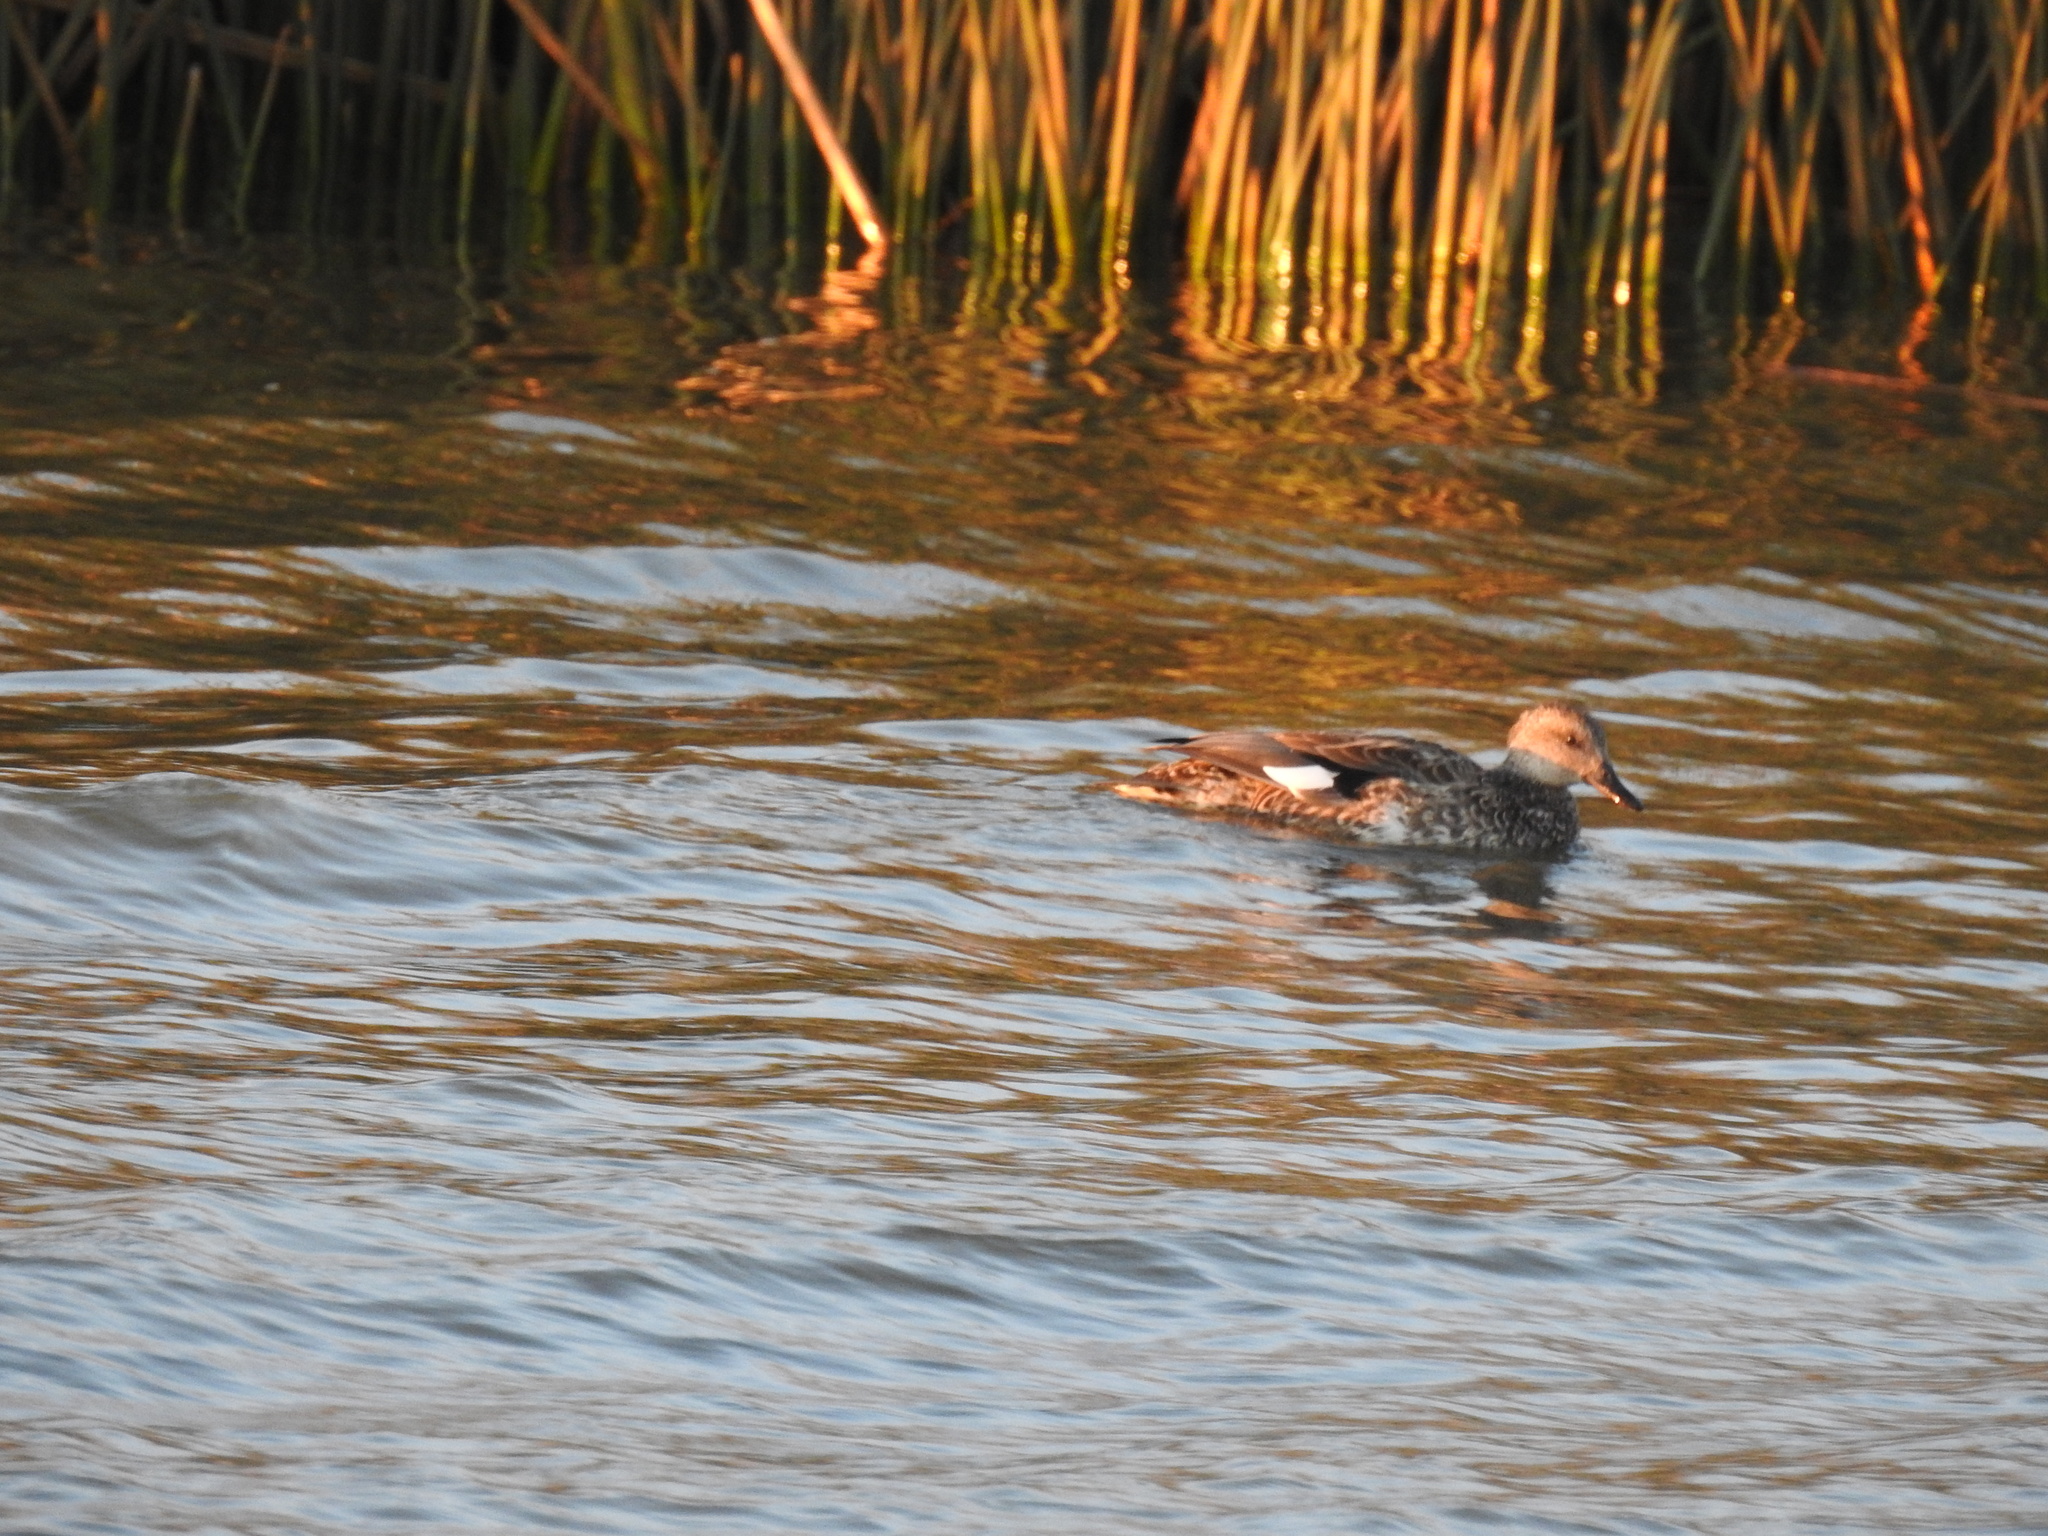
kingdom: Animalia
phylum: Chordata
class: Aves
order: Anseriformes
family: Anatidae
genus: Mareca
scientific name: Mareca strepera
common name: Gadwall
